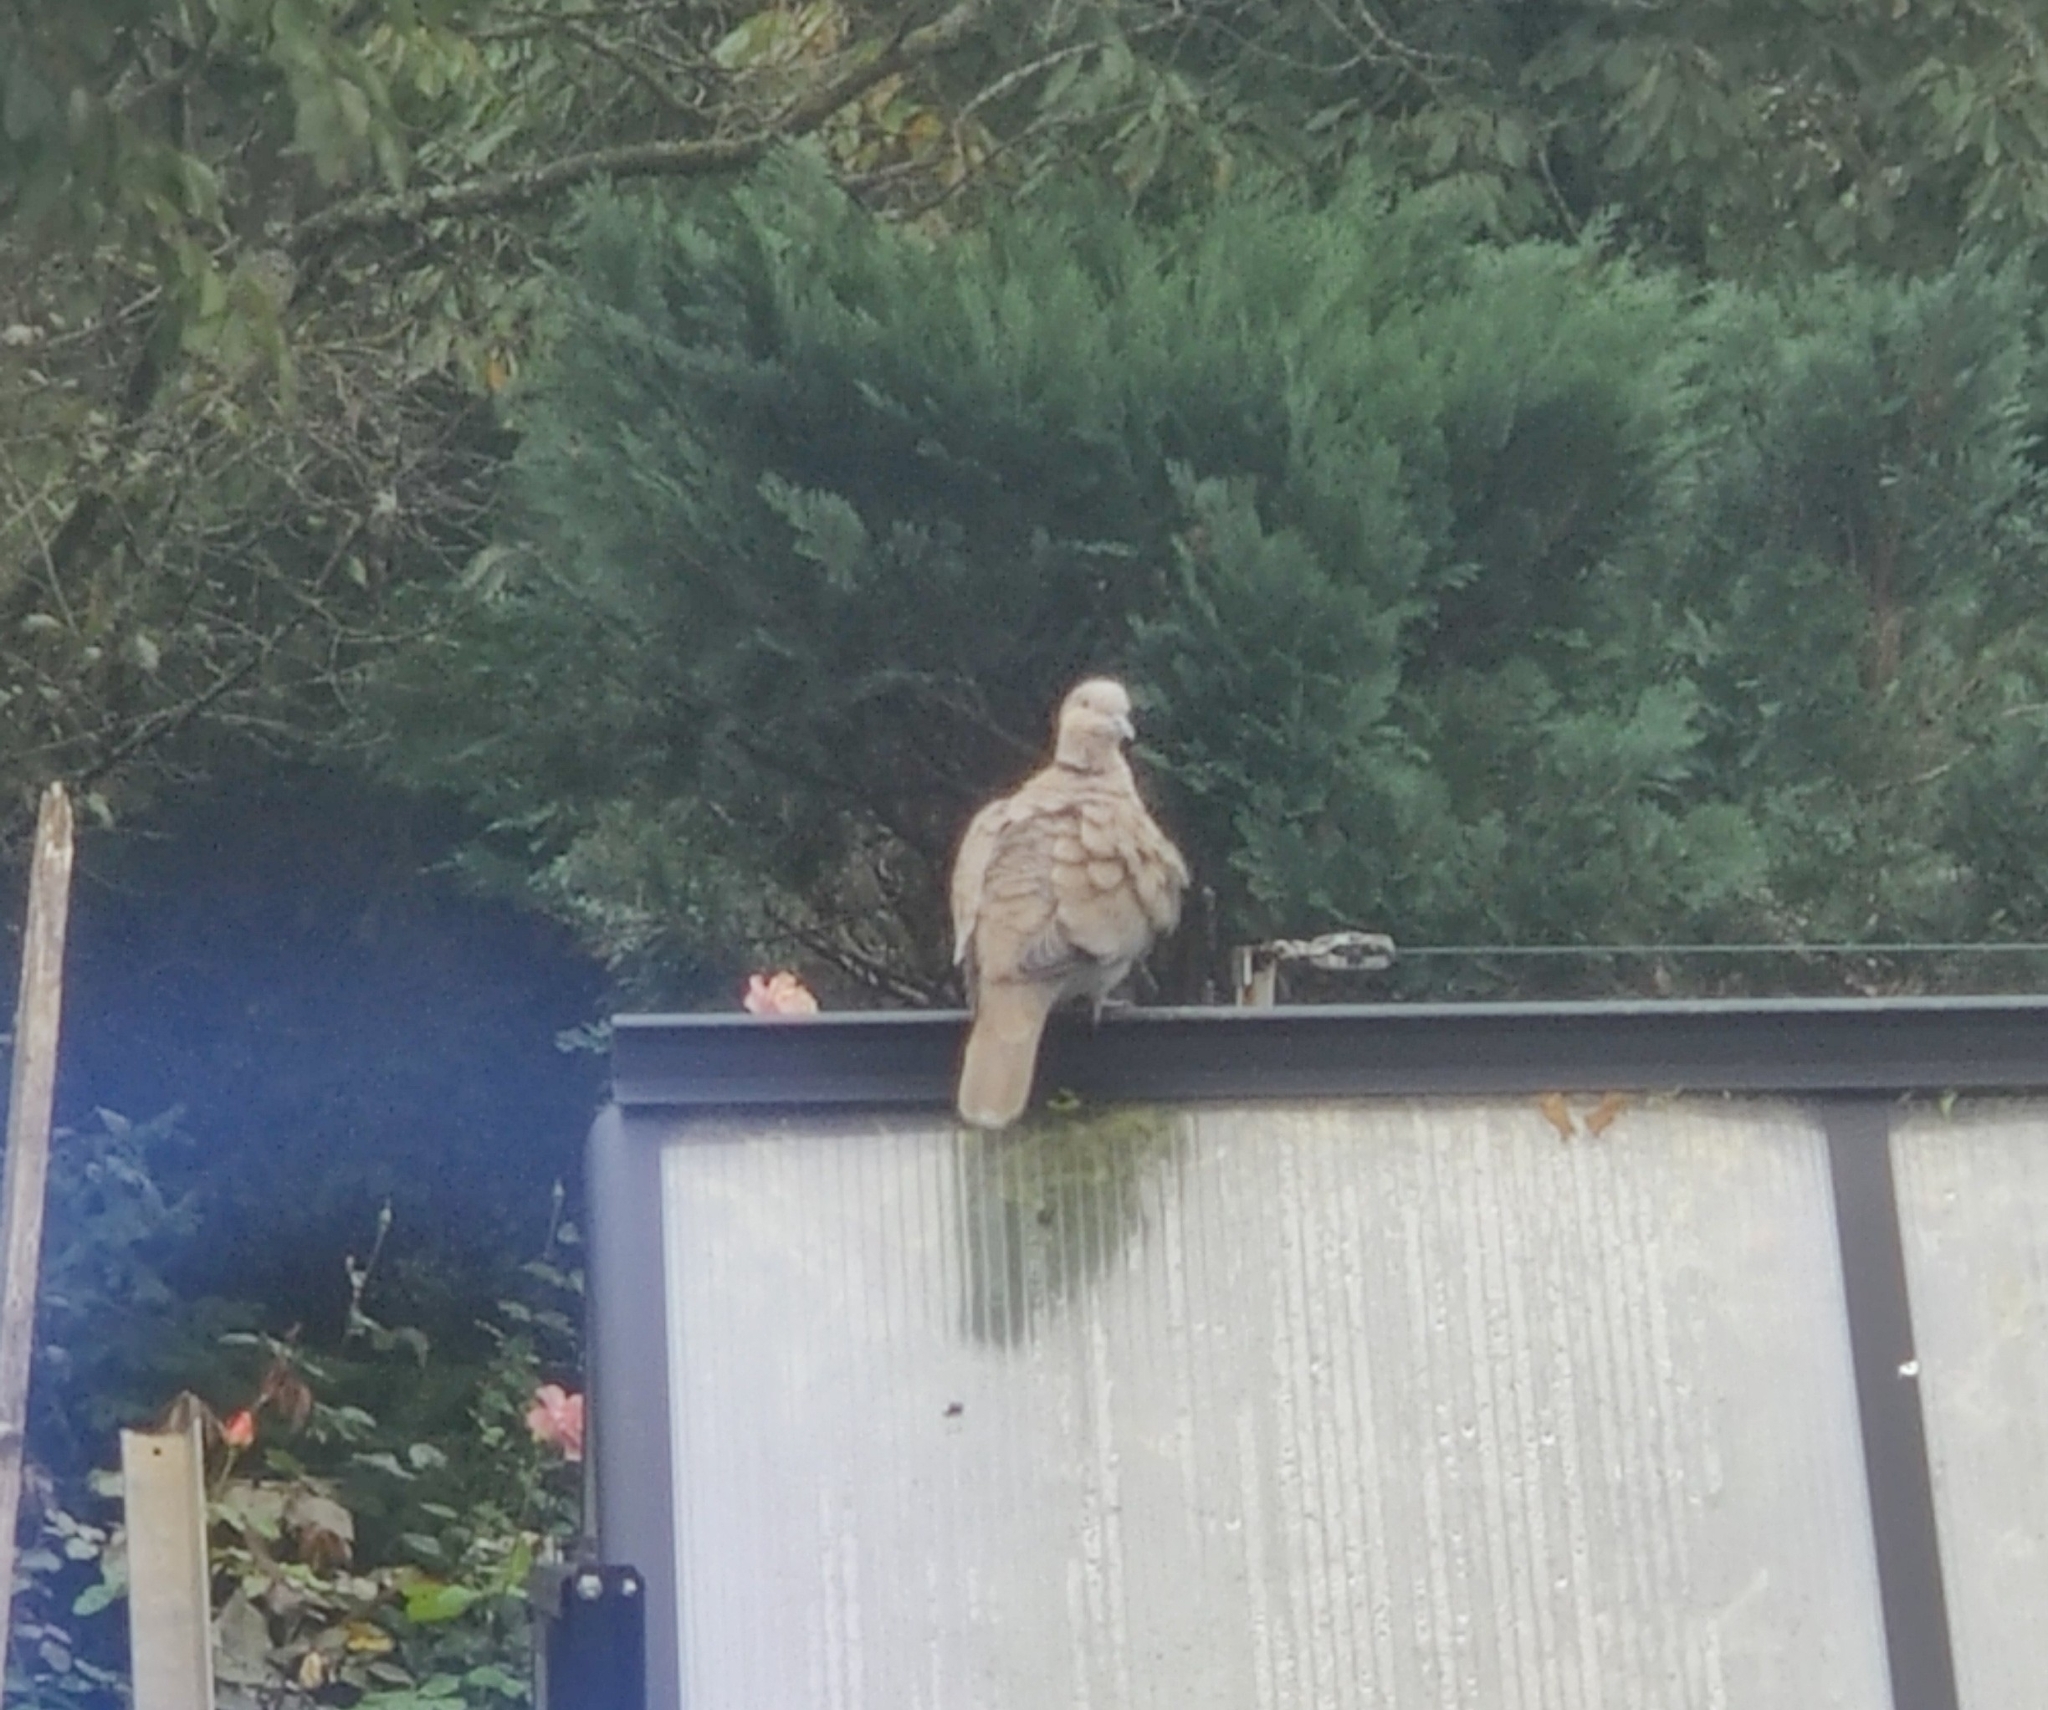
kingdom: Animalia
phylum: Chordata
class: Aves
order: Columbiformes
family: Columbidae
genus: Streptopelia
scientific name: Streptopelia decaocto
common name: Eurasian collared dove
